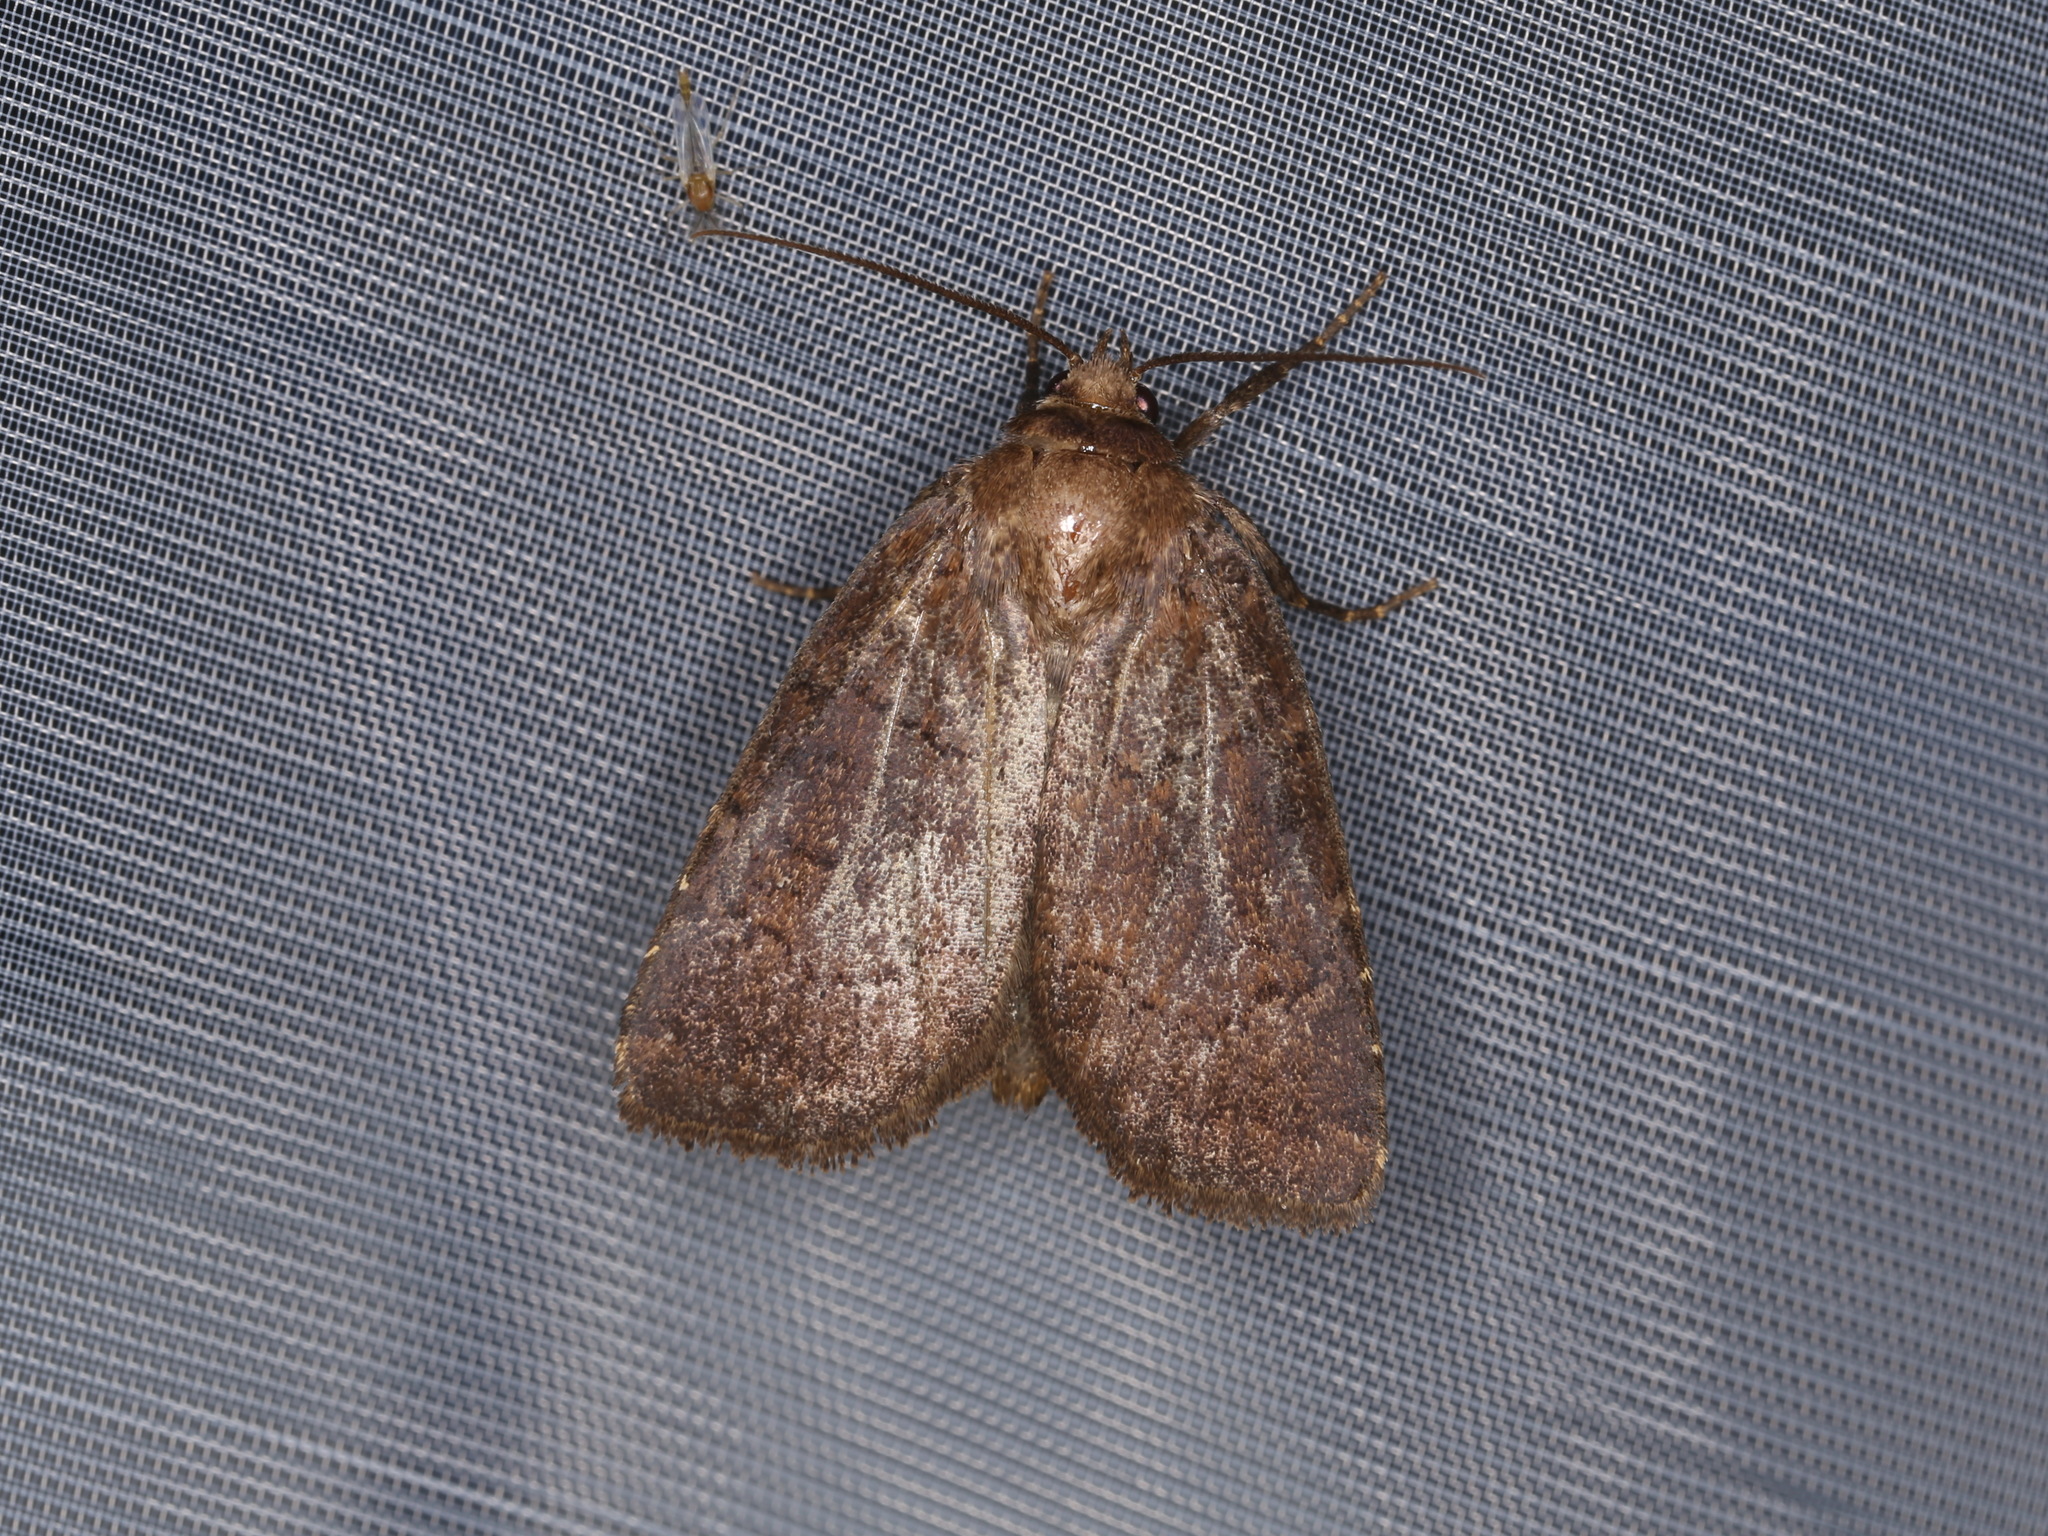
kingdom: Animalia
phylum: Arthropoda
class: Insecta
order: Lepidoptera
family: Noctuidae
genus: Charanyca
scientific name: Charanyca ferruginea
